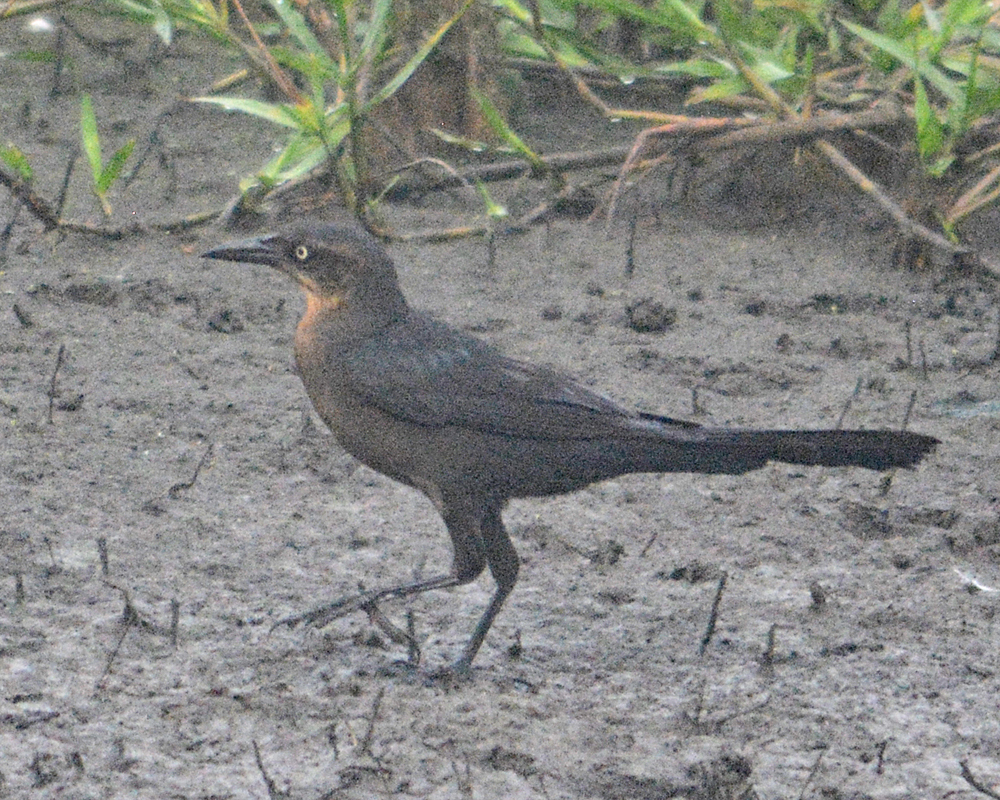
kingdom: Animalia
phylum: Chordata
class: Aves
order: Passeriformes
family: Icteridae
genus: Quiscalus
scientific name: Quiscalus mexicanus
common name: Great-tailed grackle
